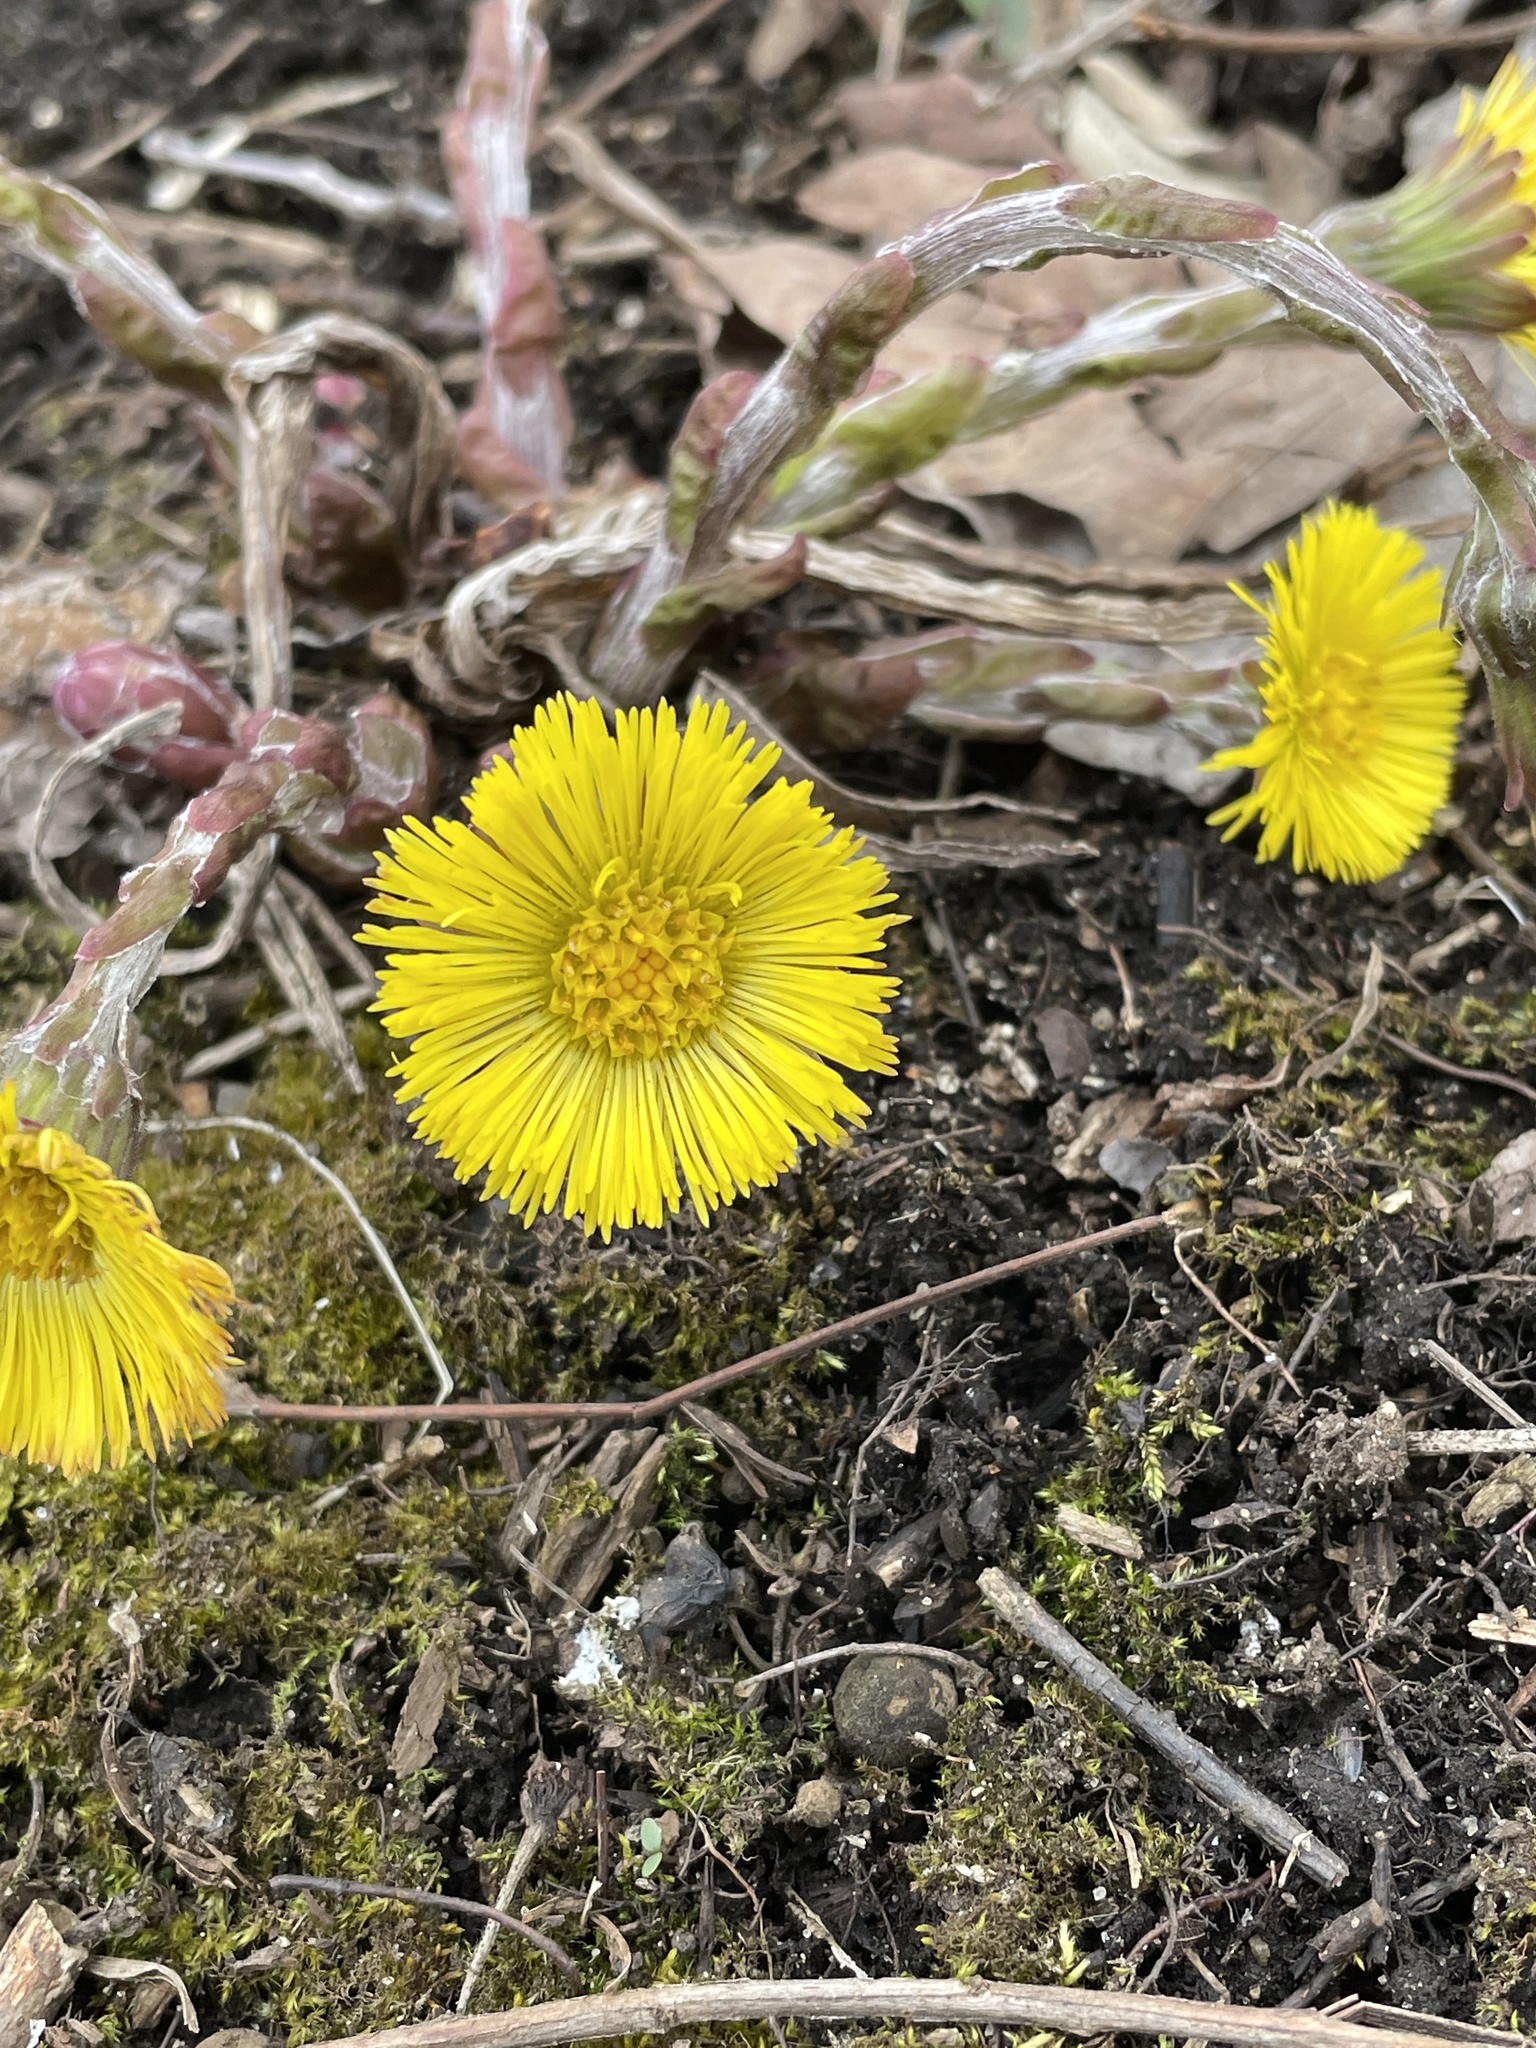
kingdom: Plantae
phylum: Tracheophyta
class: Magnoliopsida
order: Asterales
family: Asteraceae
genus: Tussilago
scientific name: Tussilago farfara
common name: Coltsfoot
